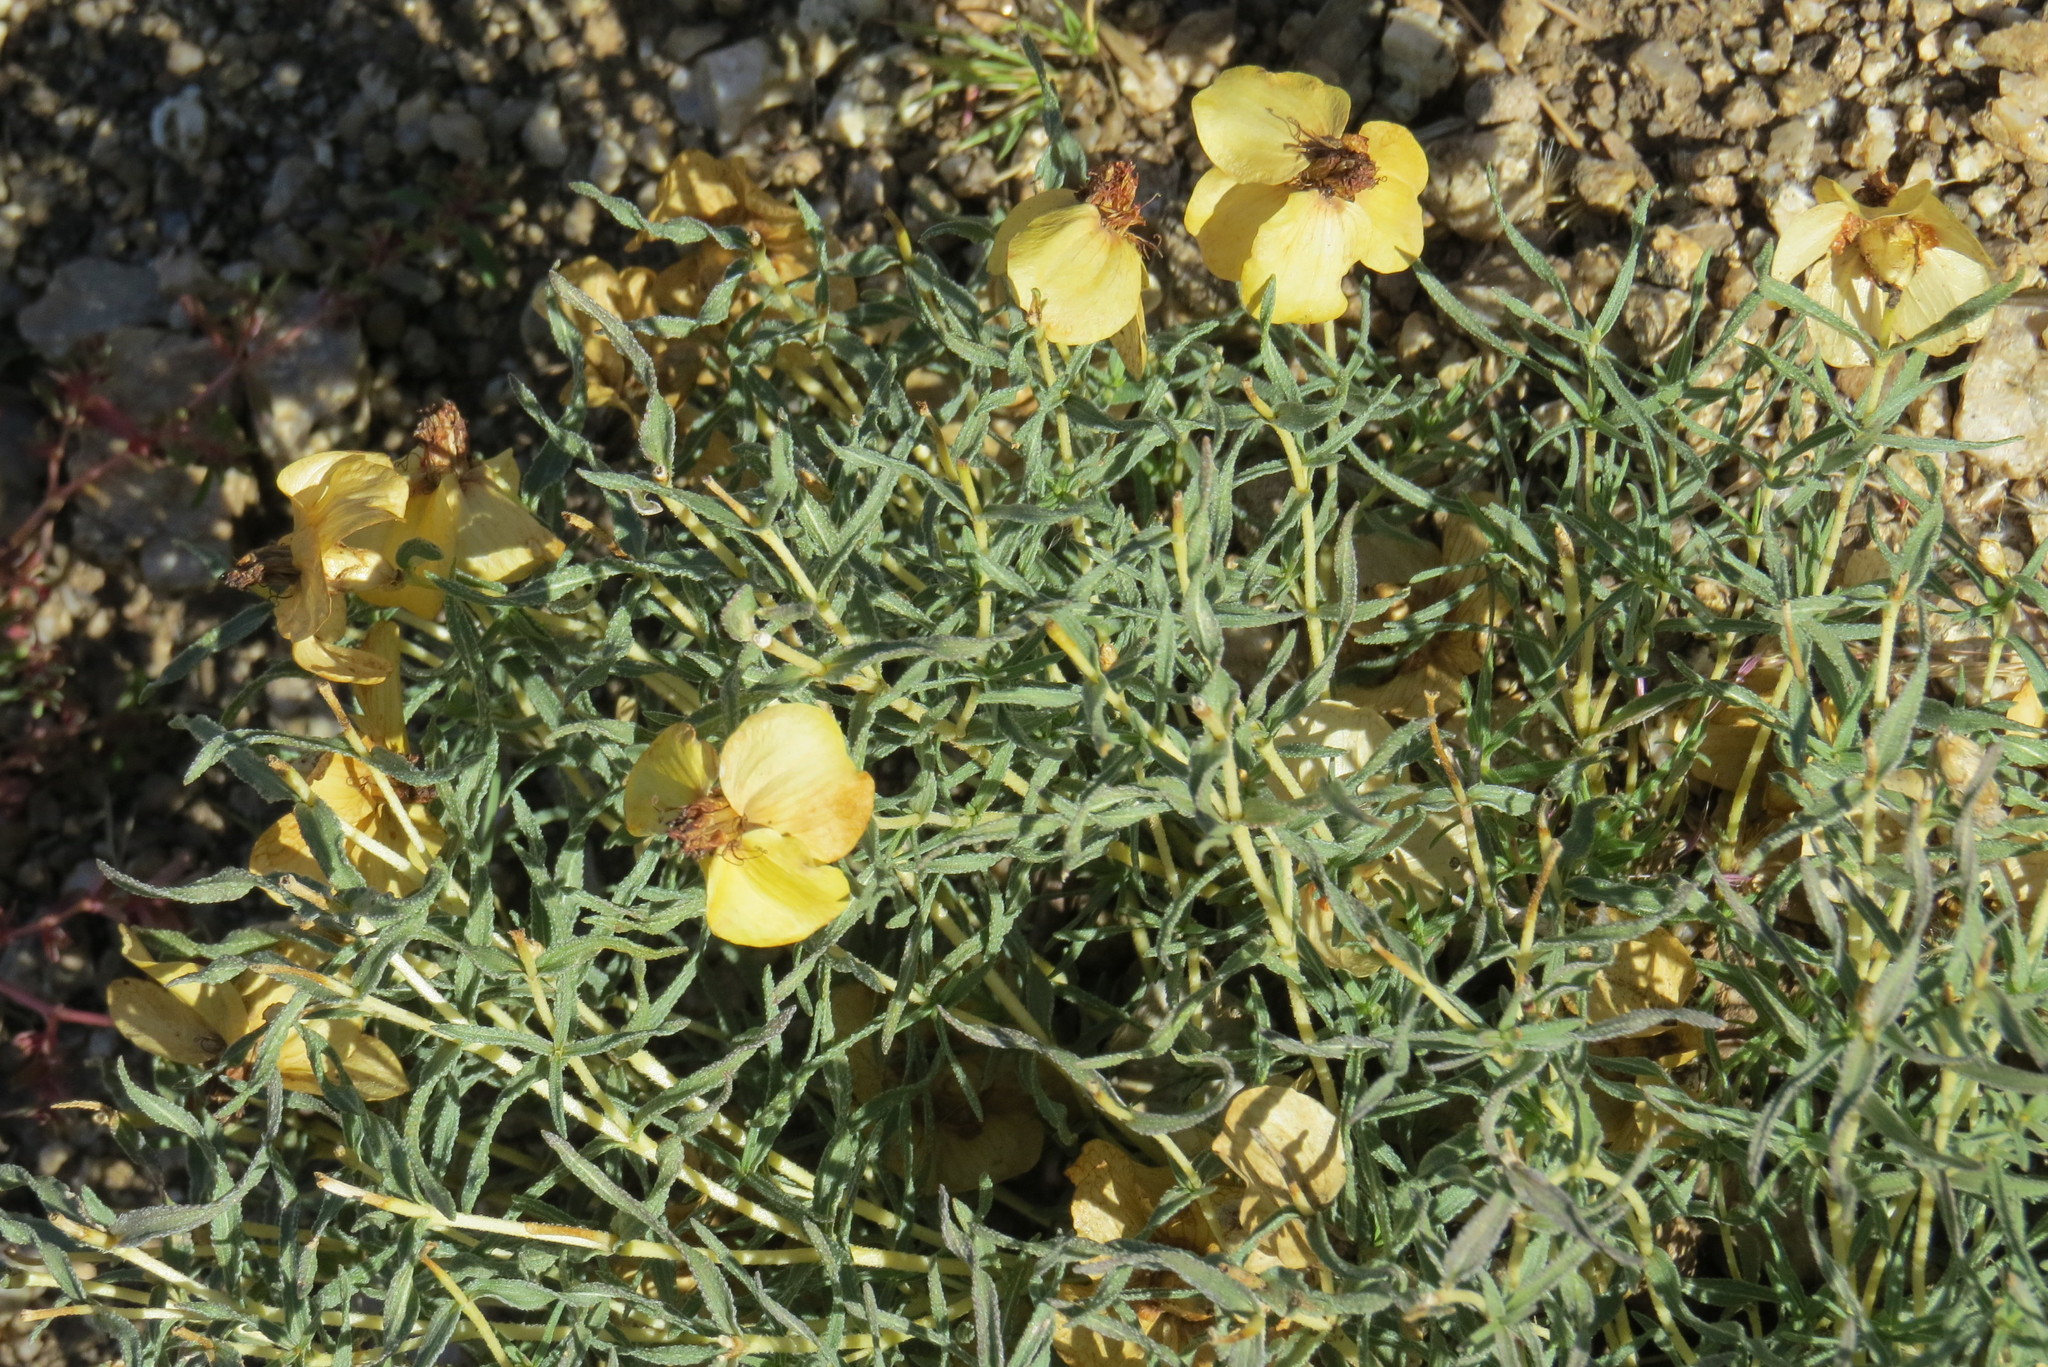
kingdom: Plantae
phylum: Tracheophyta
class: Magnoliopsida
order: Asterales
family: Asteraceae
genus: Zinnia
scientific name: Zinnia grandiflora
